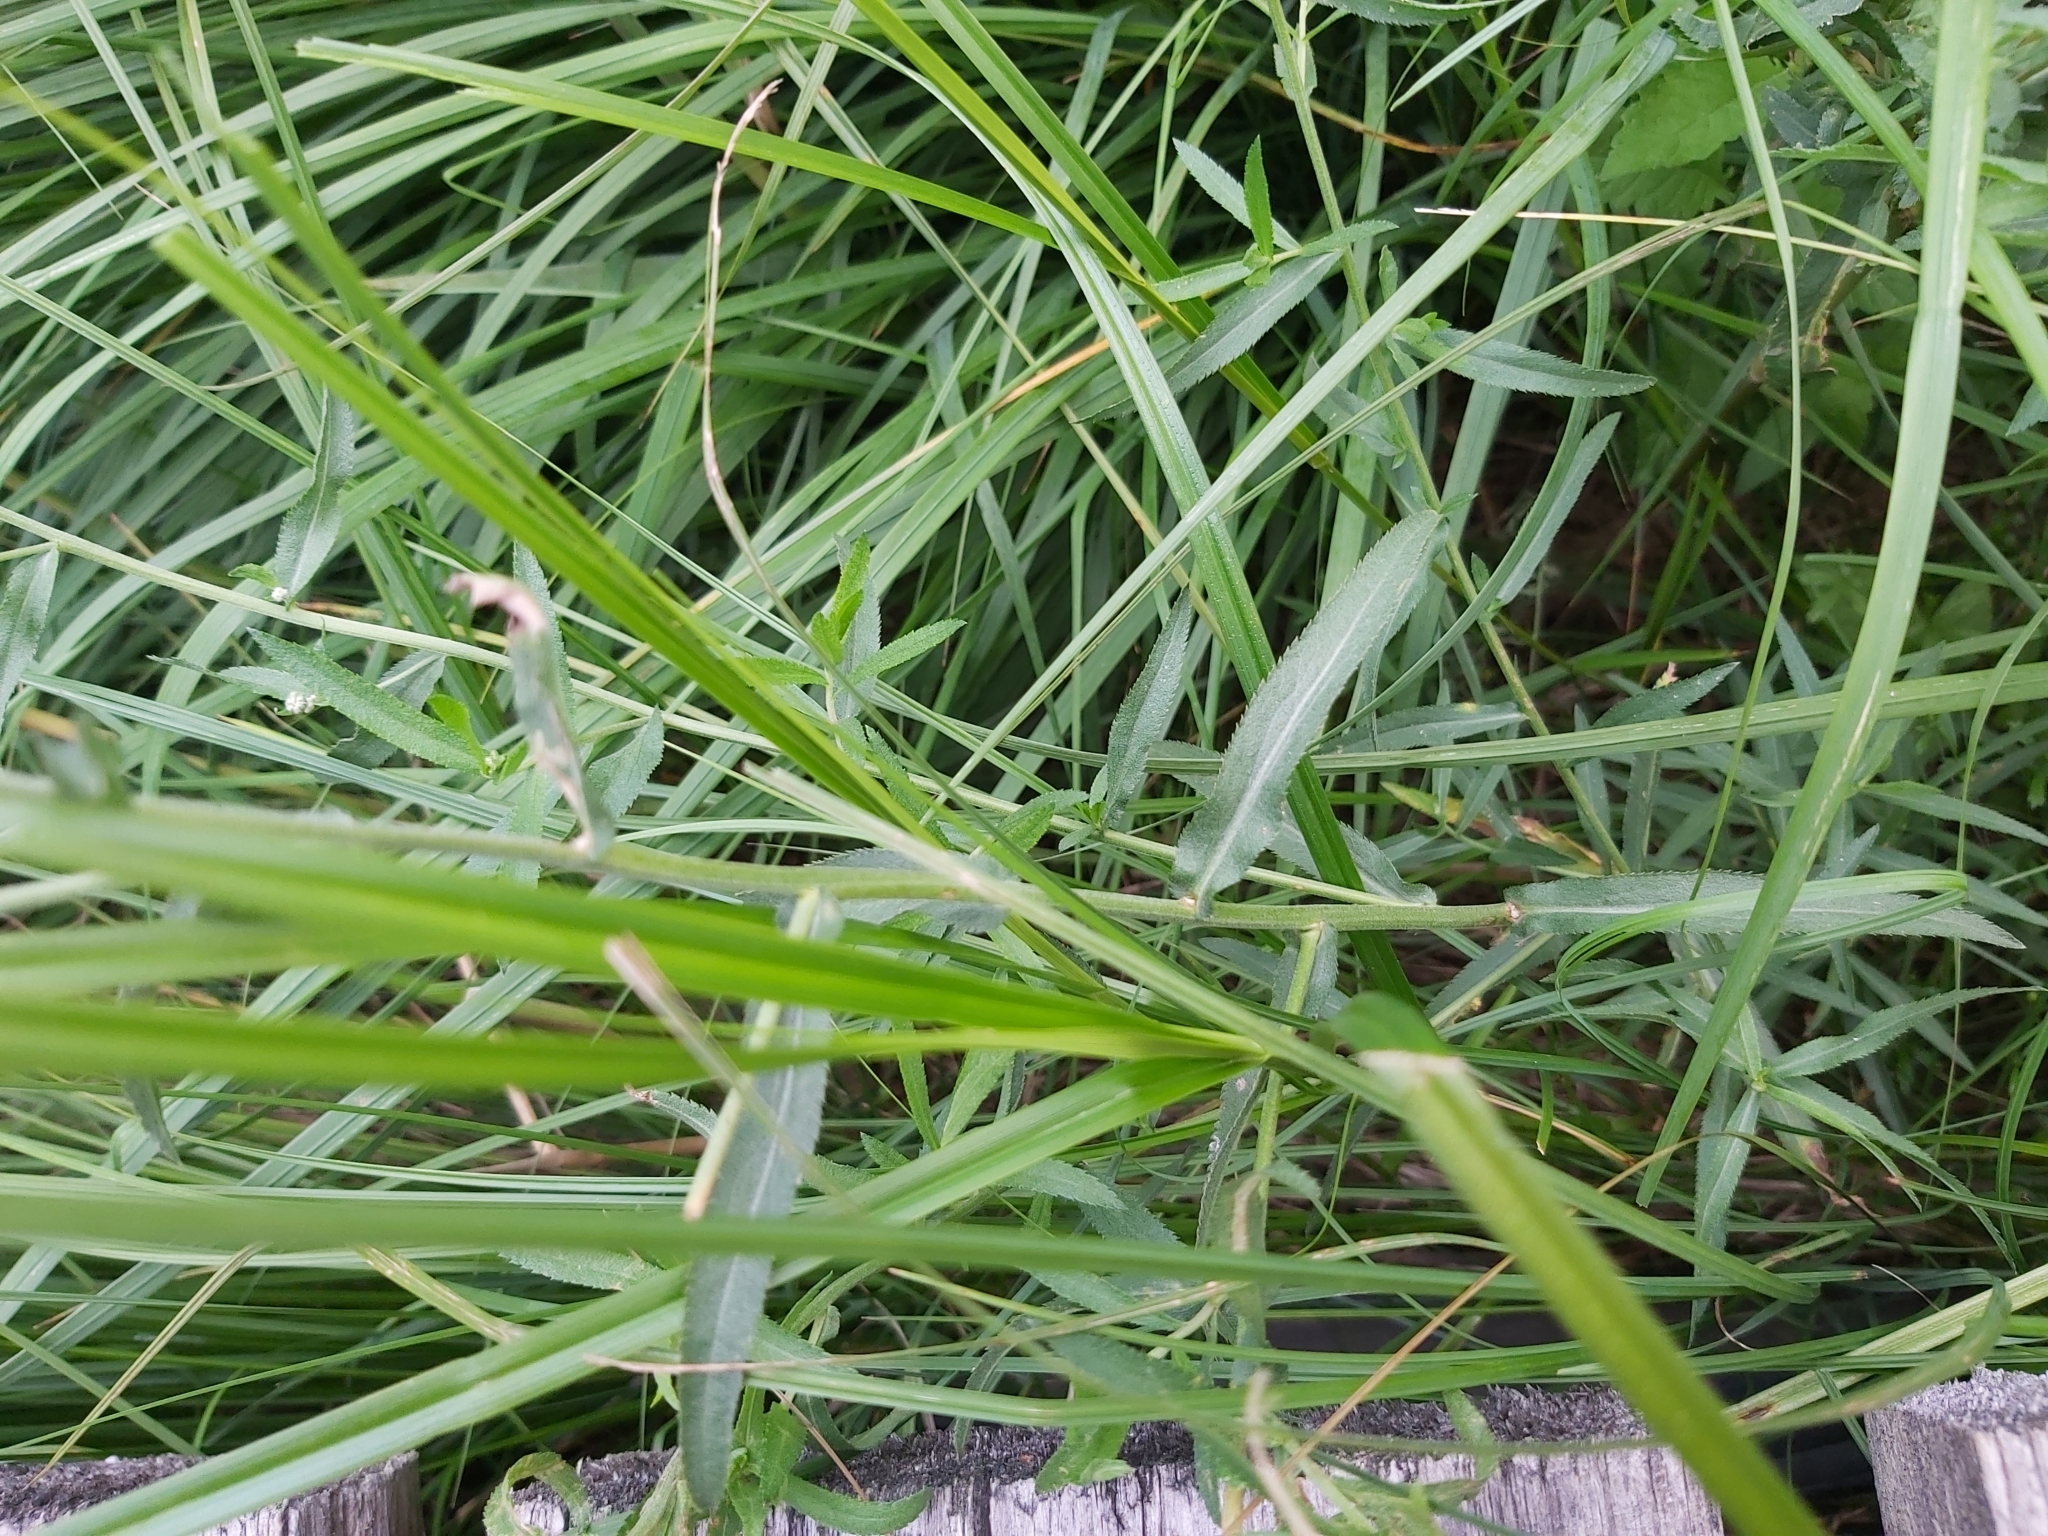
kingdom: Plantae
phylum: Tracheophyta
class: Magnoliopsida
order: Asterales
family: Asteraceae
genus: Achillea
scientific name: Achillea ptarmica
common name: Sneezeweed
